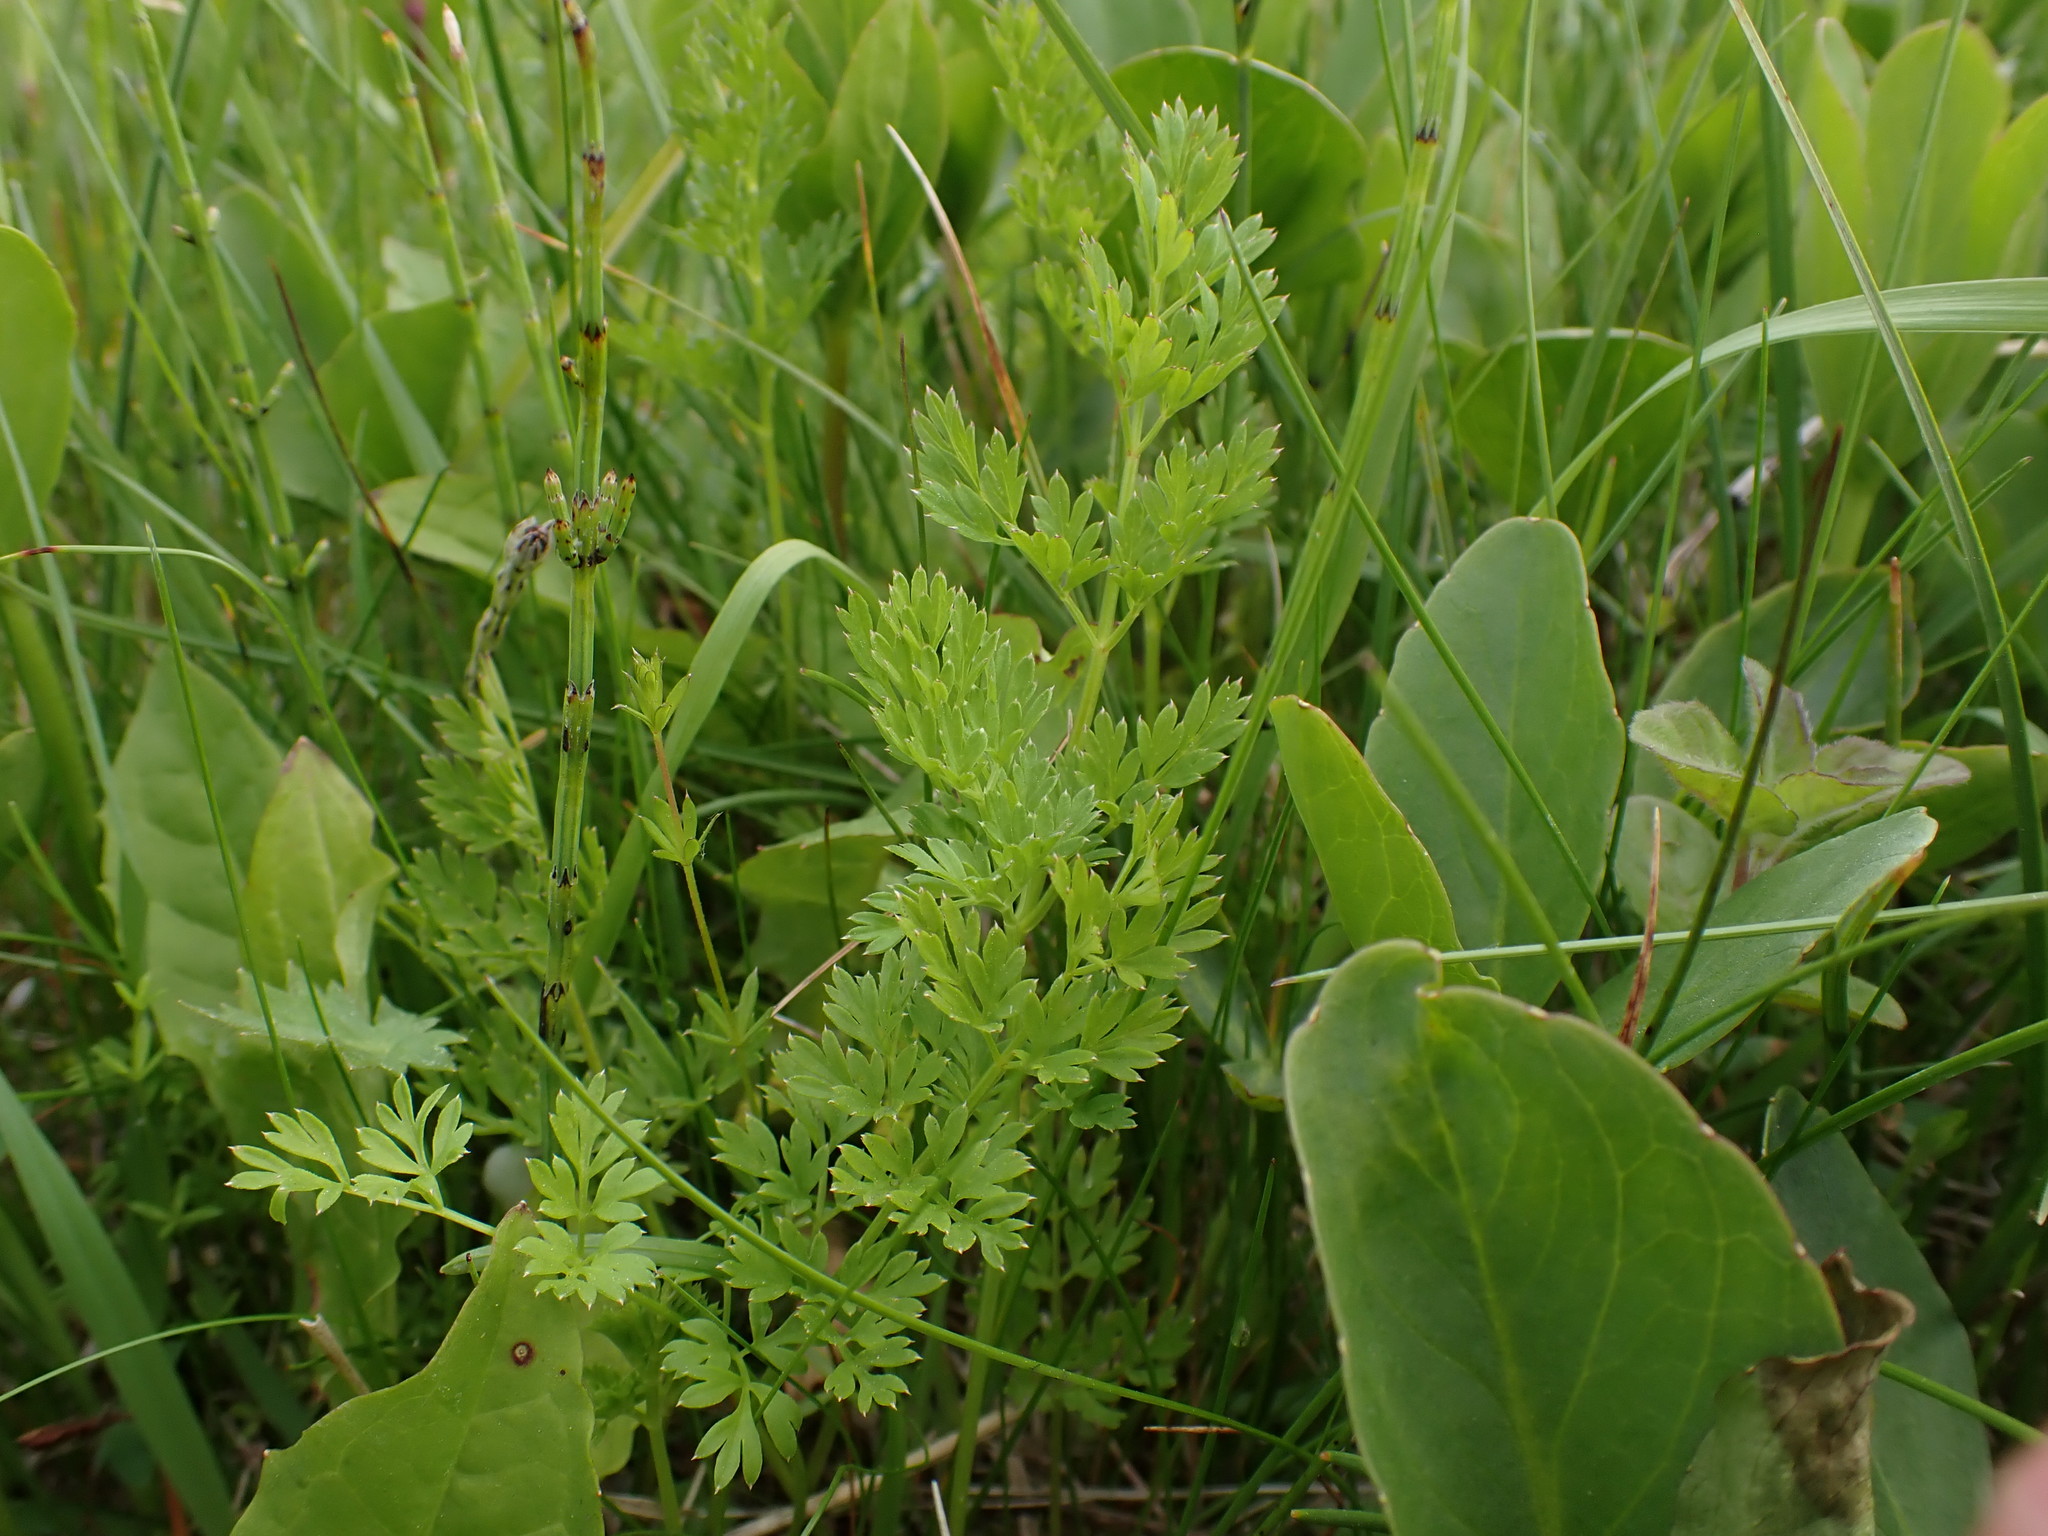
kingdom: Plantae
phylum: Tracheophyta
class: Magnoliopsida
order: Apiales
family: Apiaceae
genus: Selinum
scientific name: Selinum carvifolia
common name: Cambridge milk-parsley
